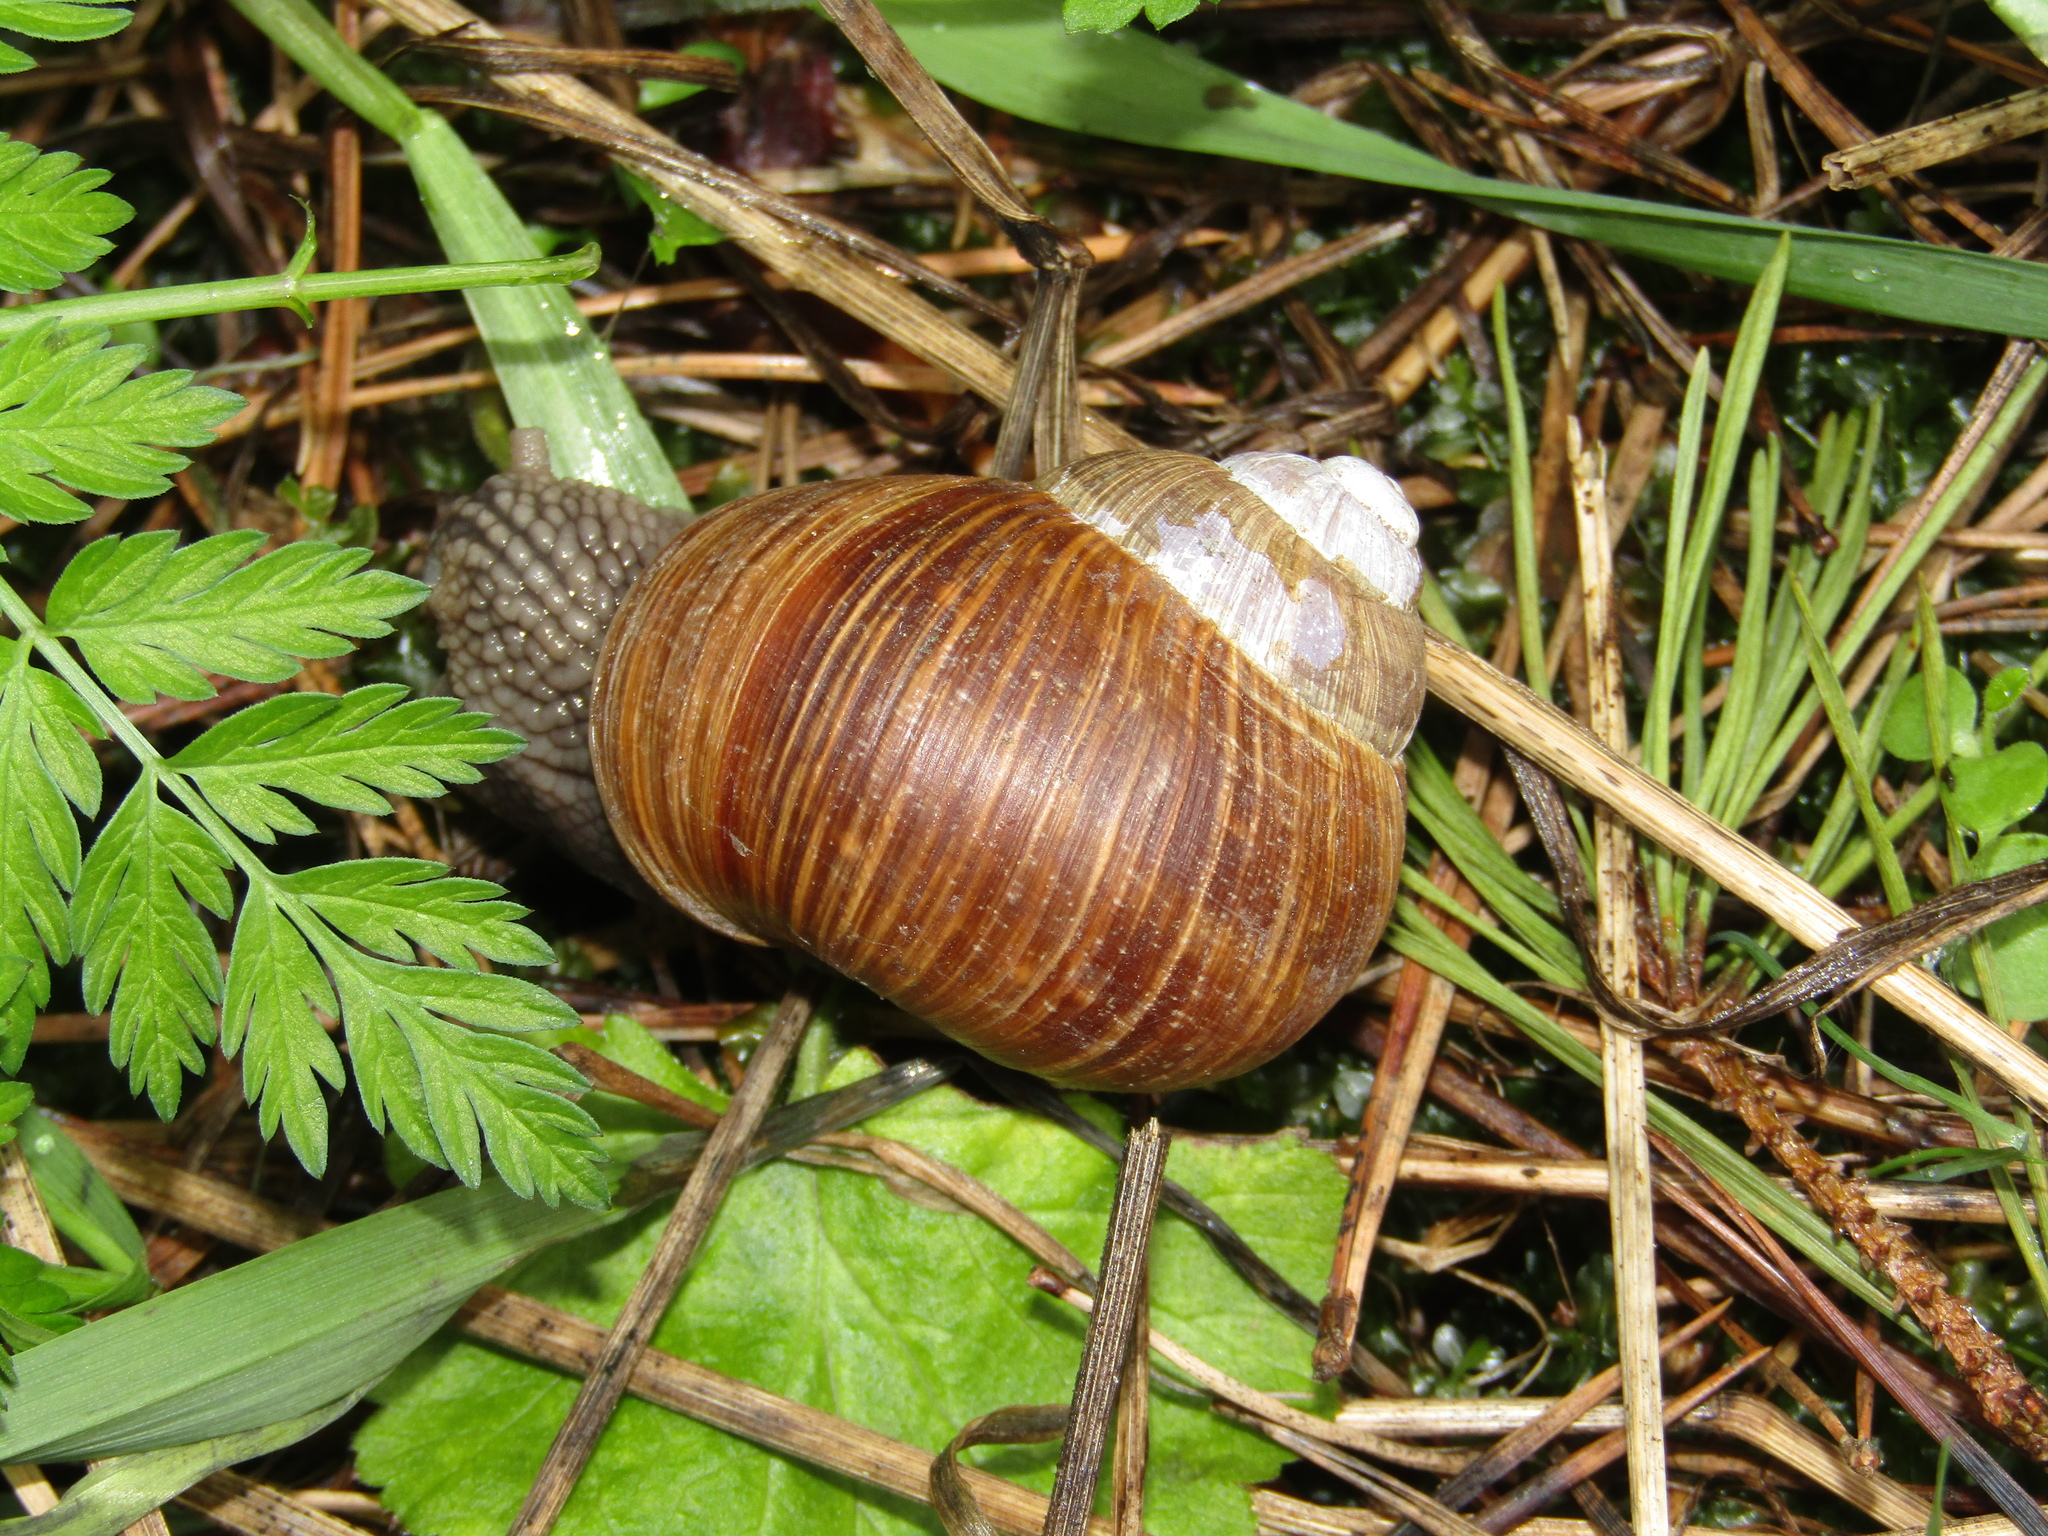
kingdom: Animalia
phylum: Mollusca
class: Gastropoda
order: Stylommatophora
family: Helicidae
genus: Helix
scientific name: Helix pomatia
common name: Roman snail
